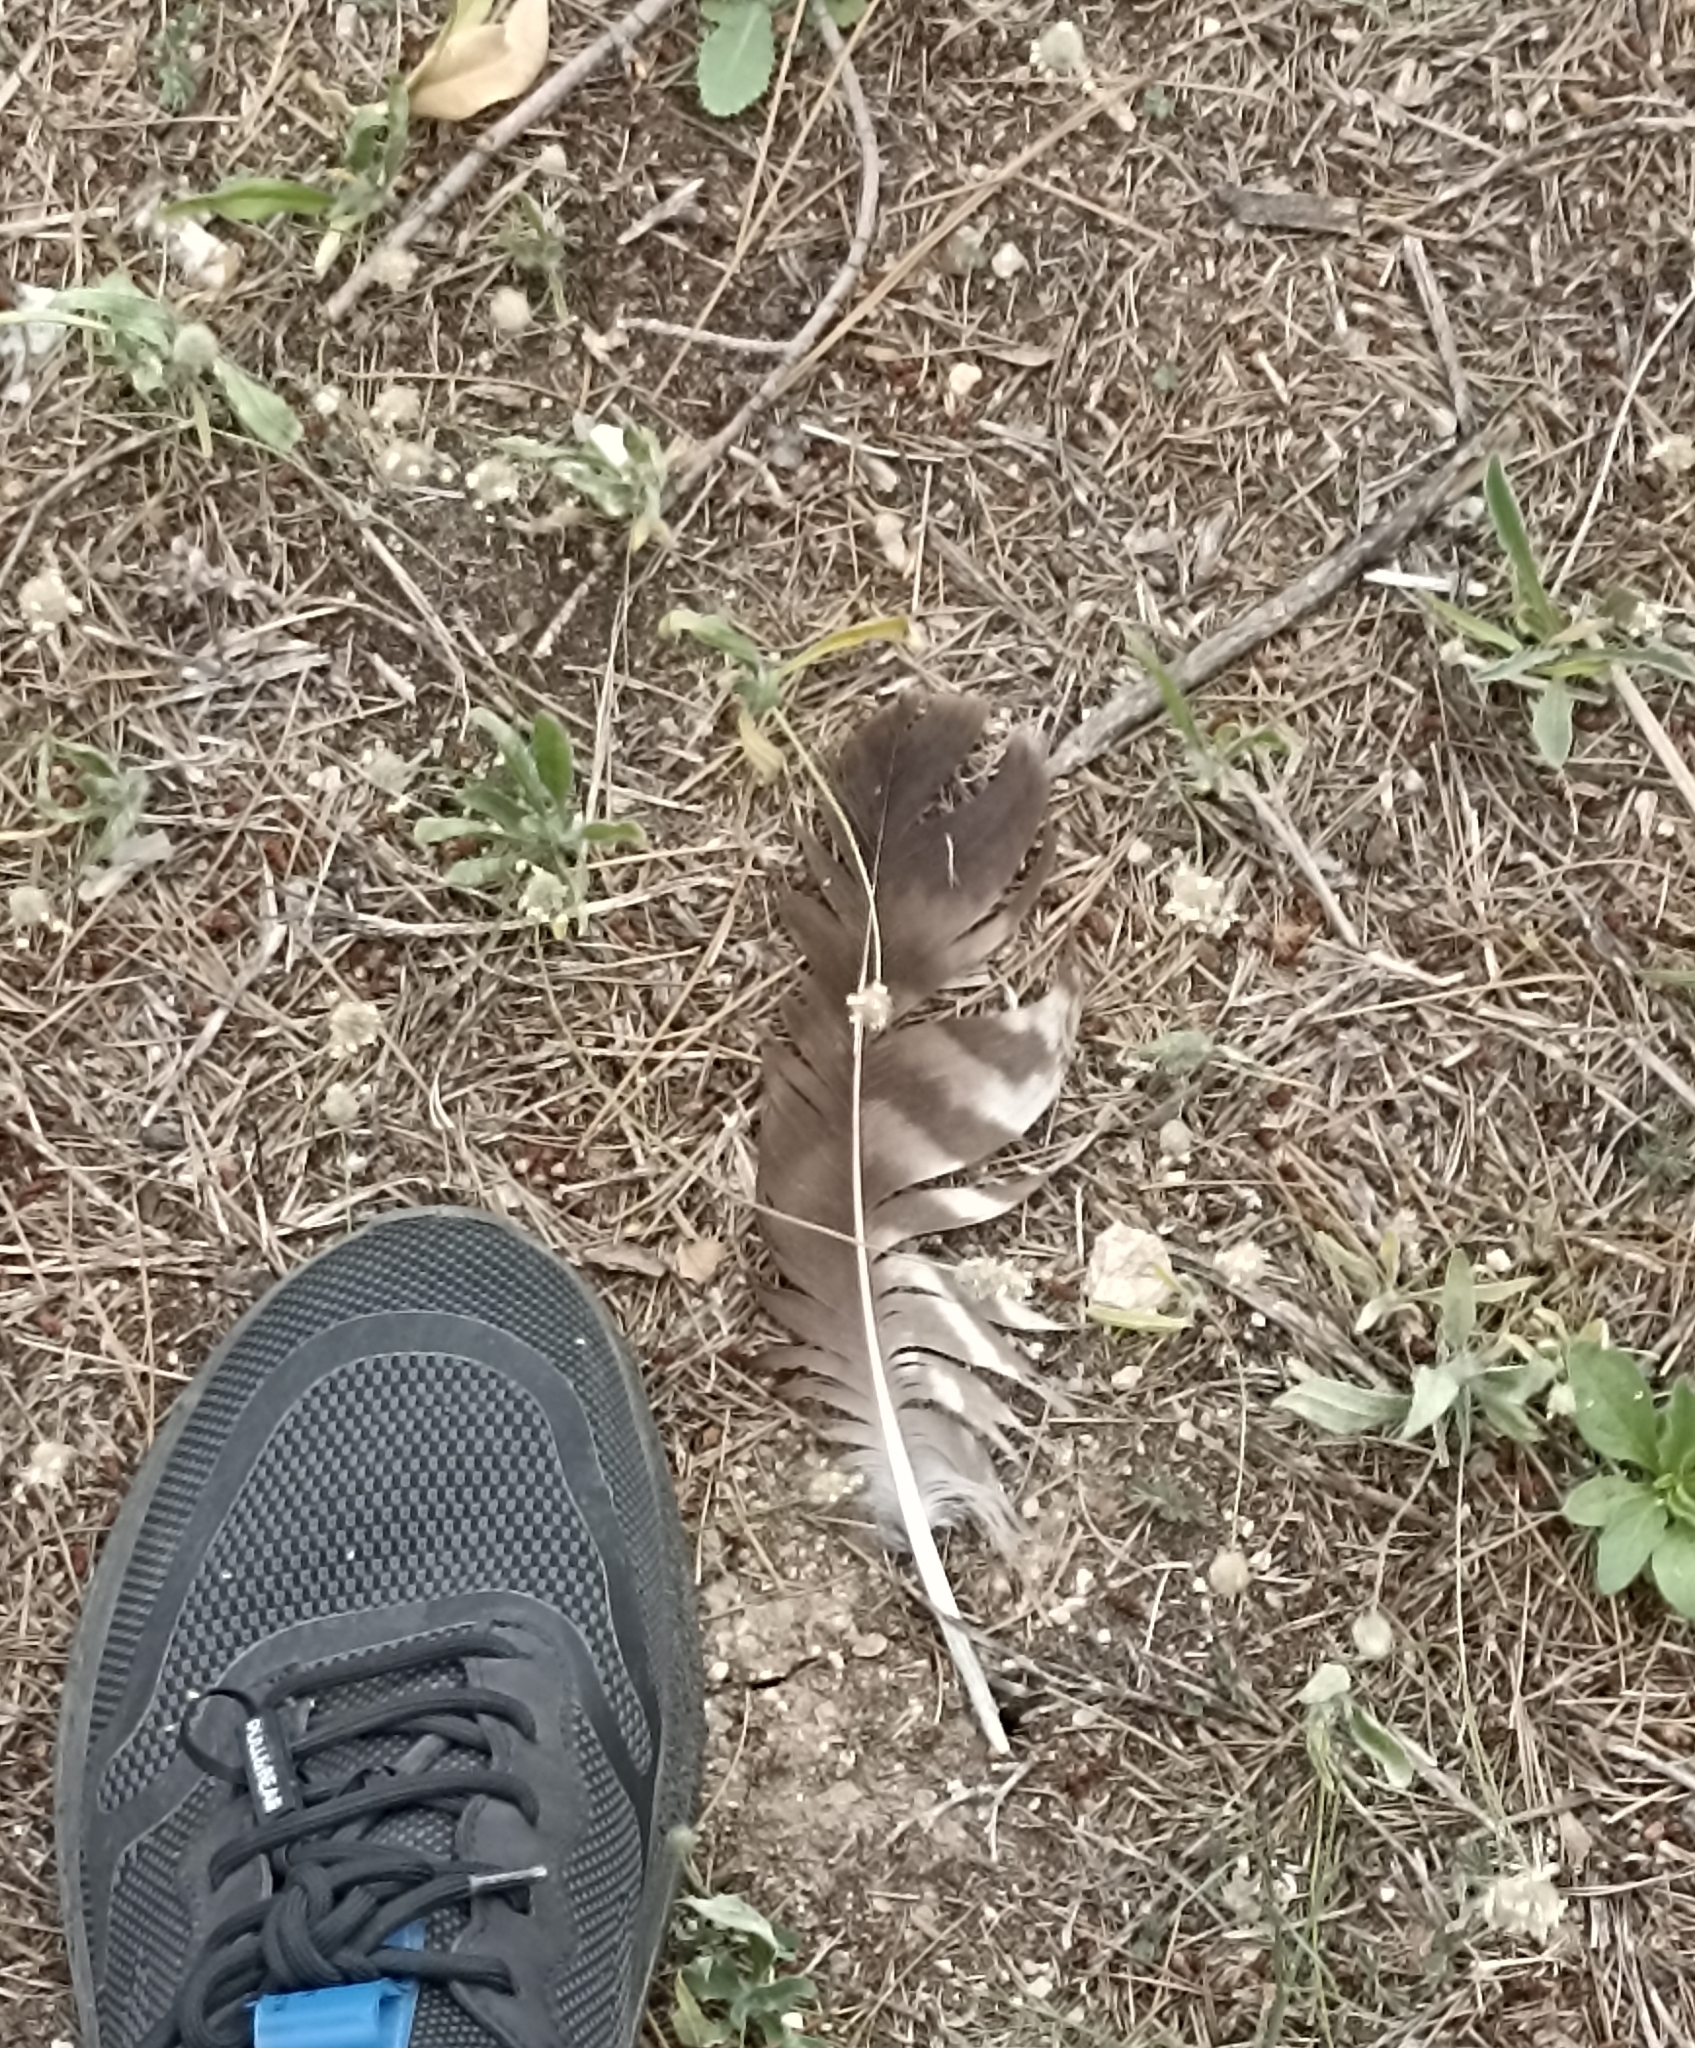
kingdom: Animalia
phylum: Chordata
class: Aves
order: Accipitriformes
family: Accipitridae
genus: Buteo
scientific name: Buteo buteo
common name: Common buzzard
